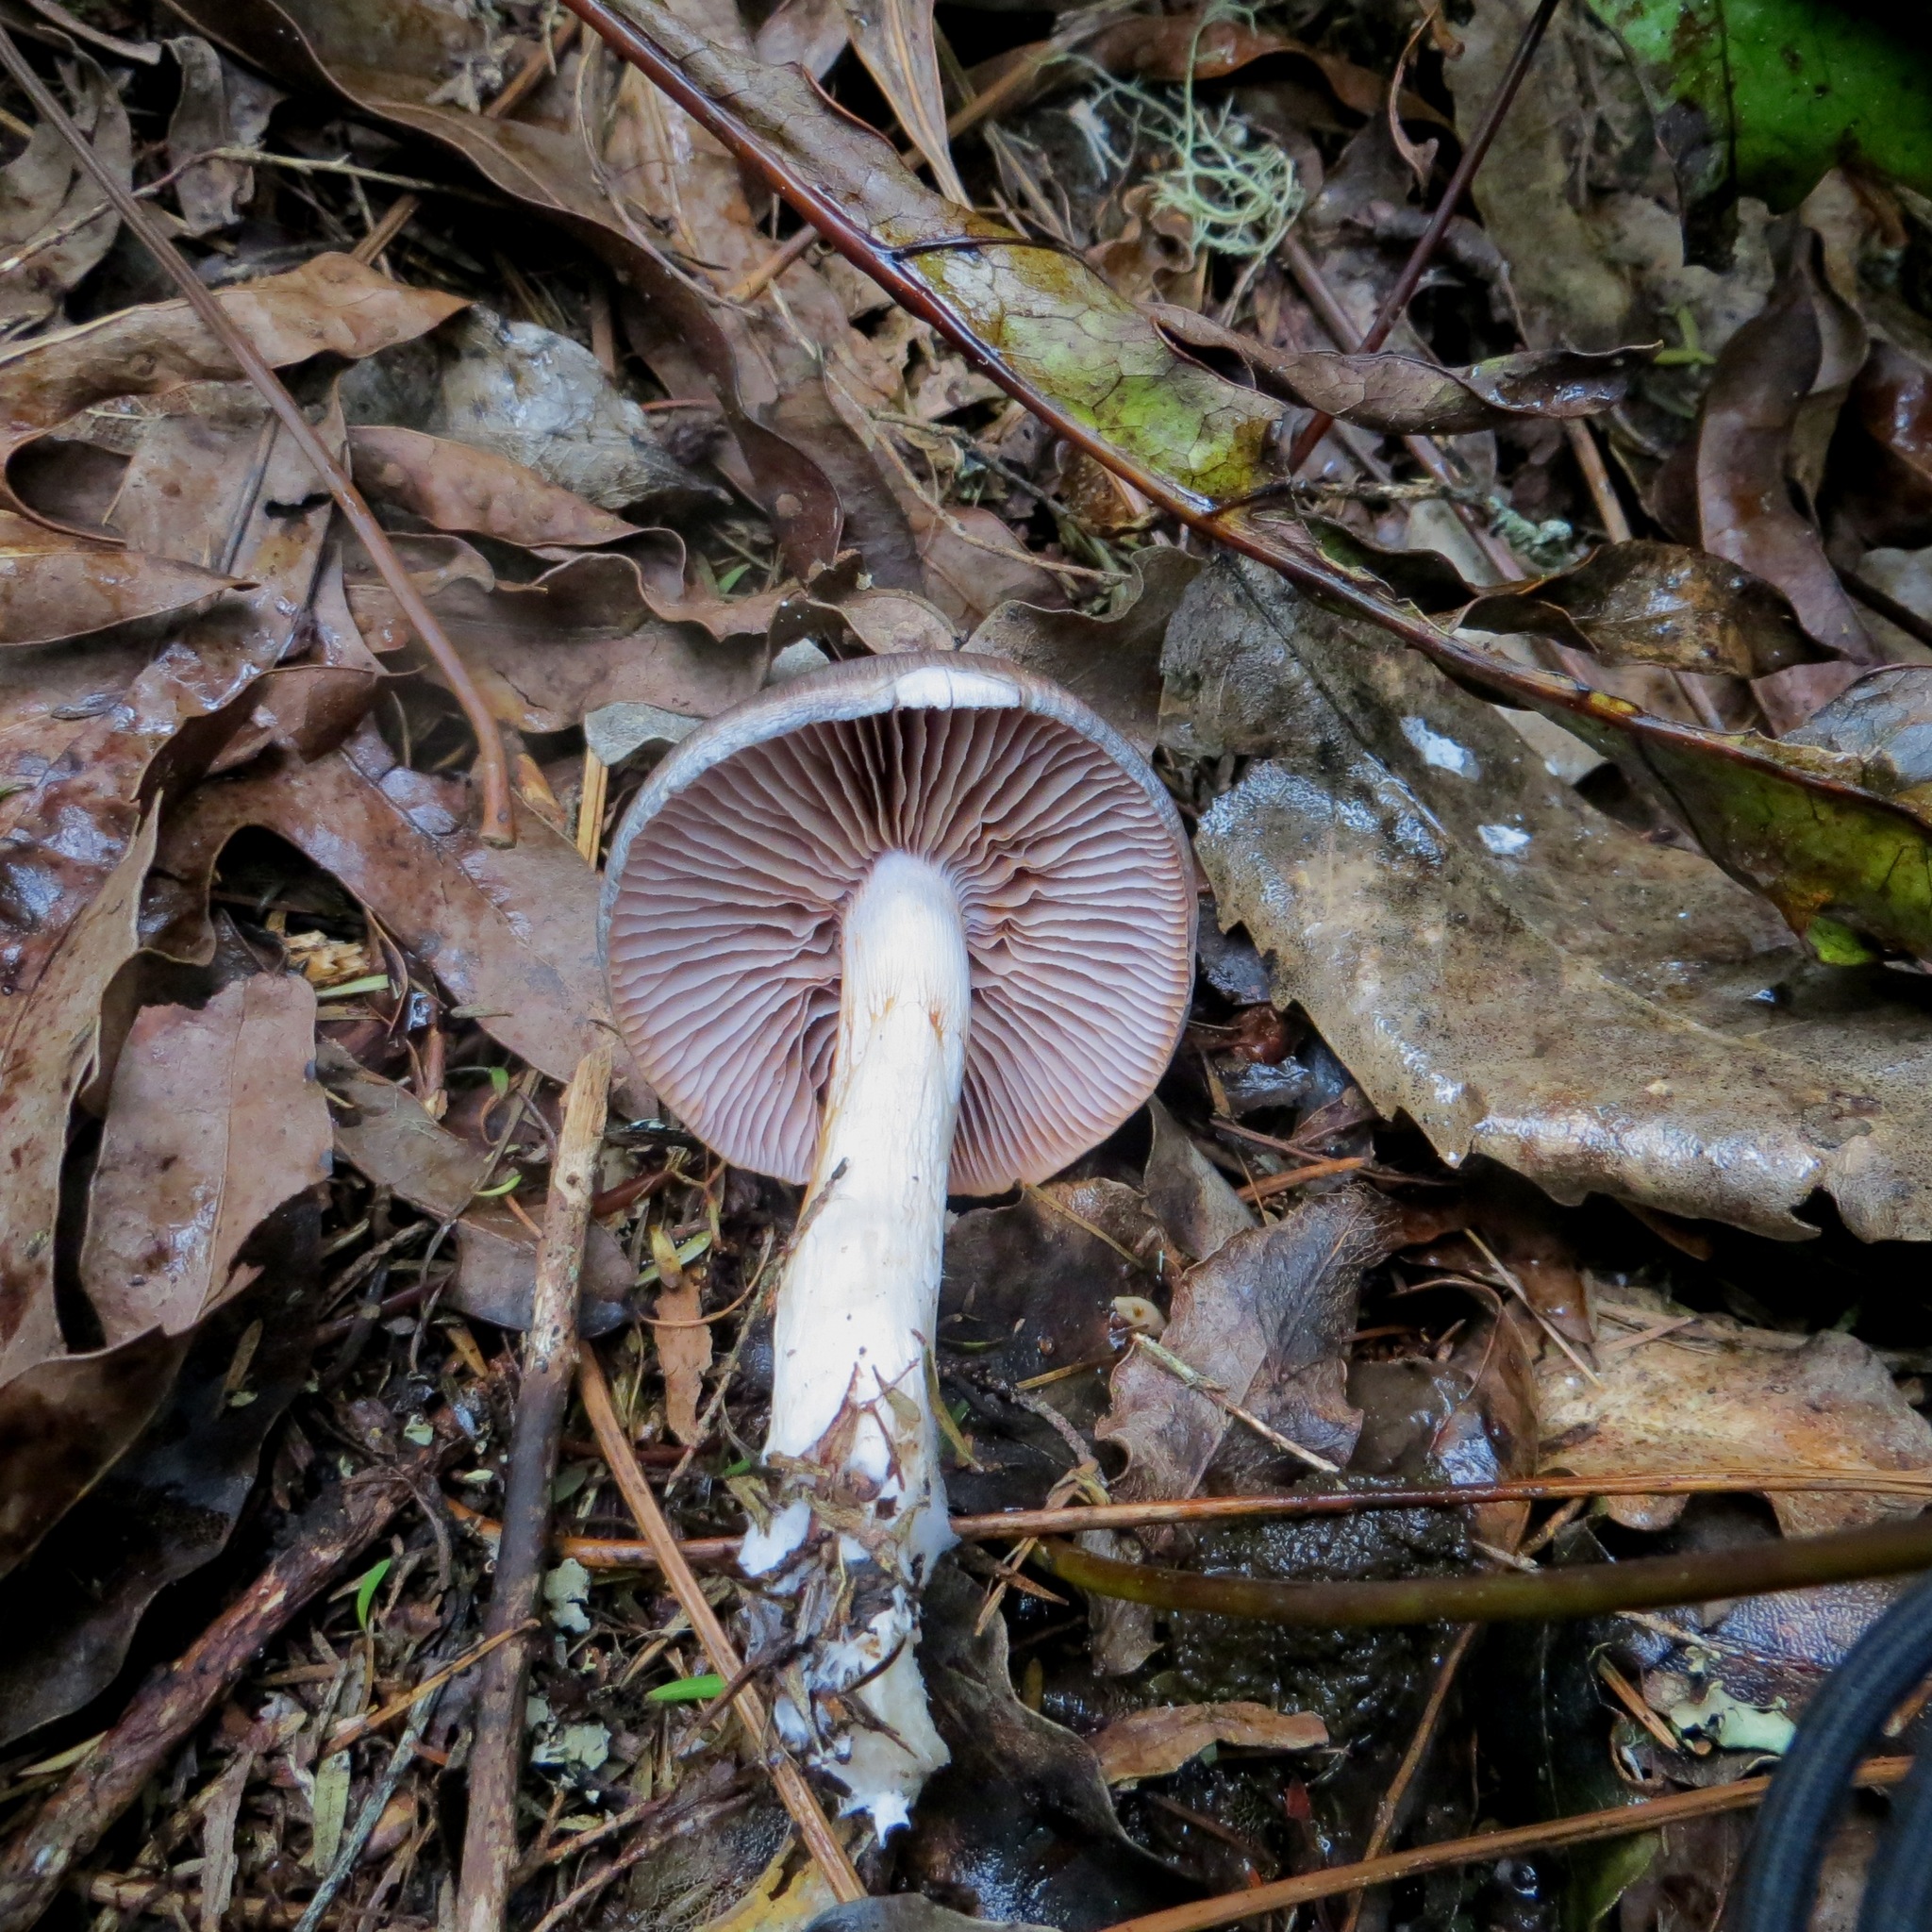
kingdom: Fungi
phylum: Basidiomycota
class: Agaricomycetes
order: Agaricales
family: Cortinariaceae
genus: Cortinarius
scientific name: Cortinarius rotundisporus
